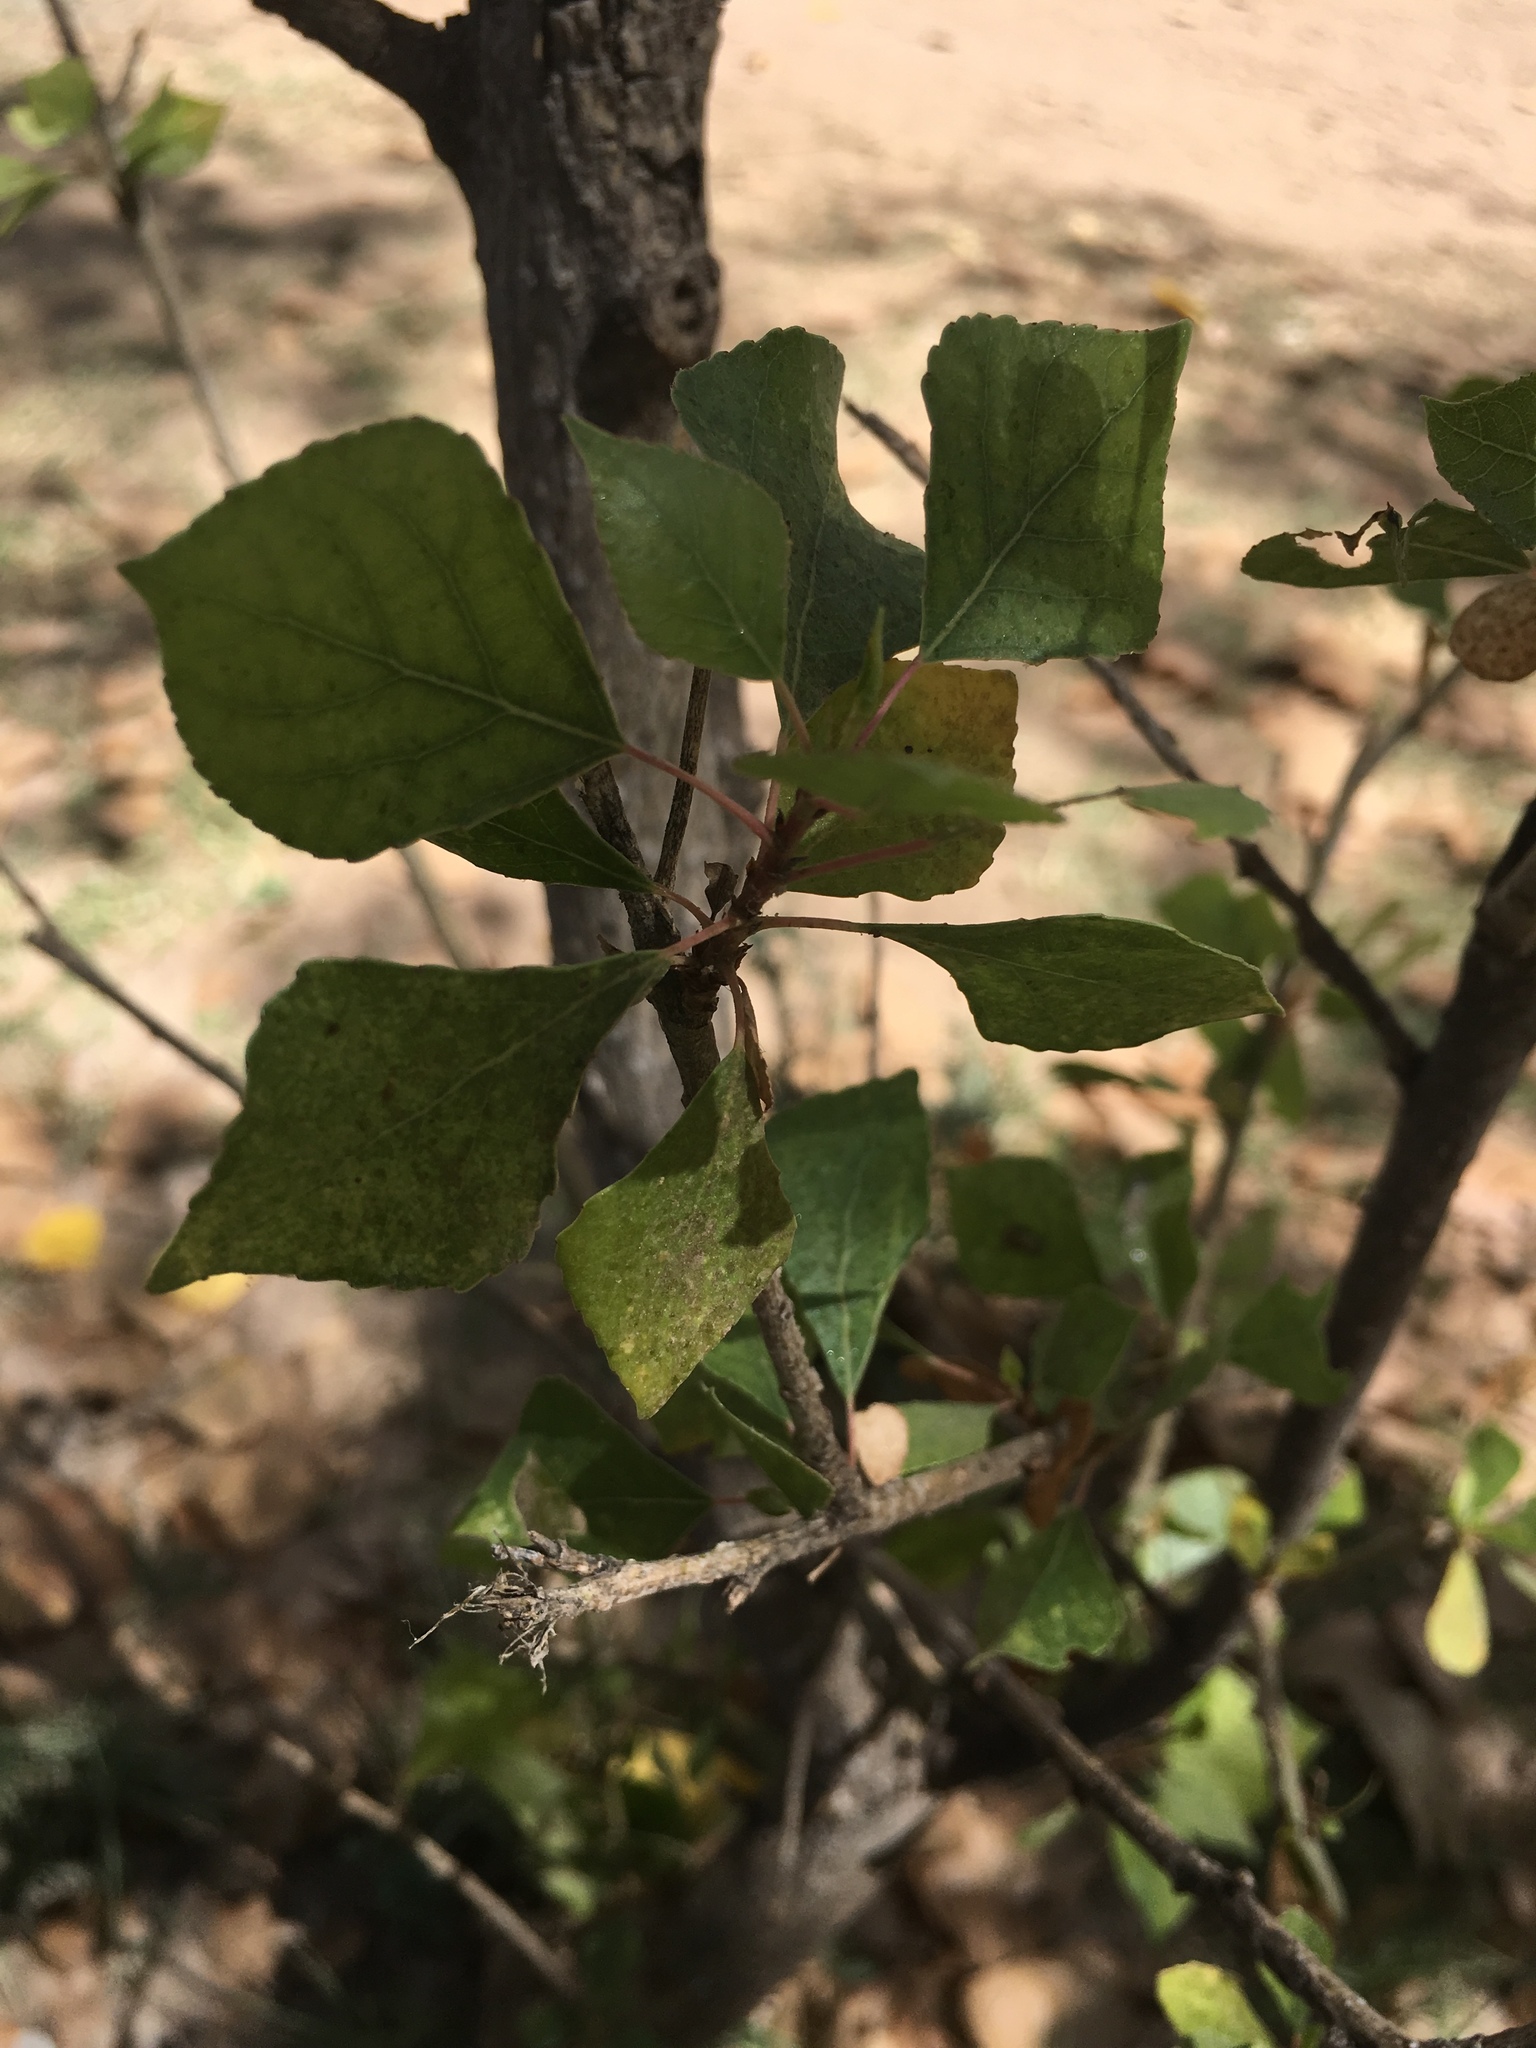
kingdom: Plantae
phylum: Tracheophyta
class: Magnoliopsida
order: Malpighiales
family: Salicaceae
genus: Populus
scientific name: Populus fremontii
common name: Fremont's cottonwood
